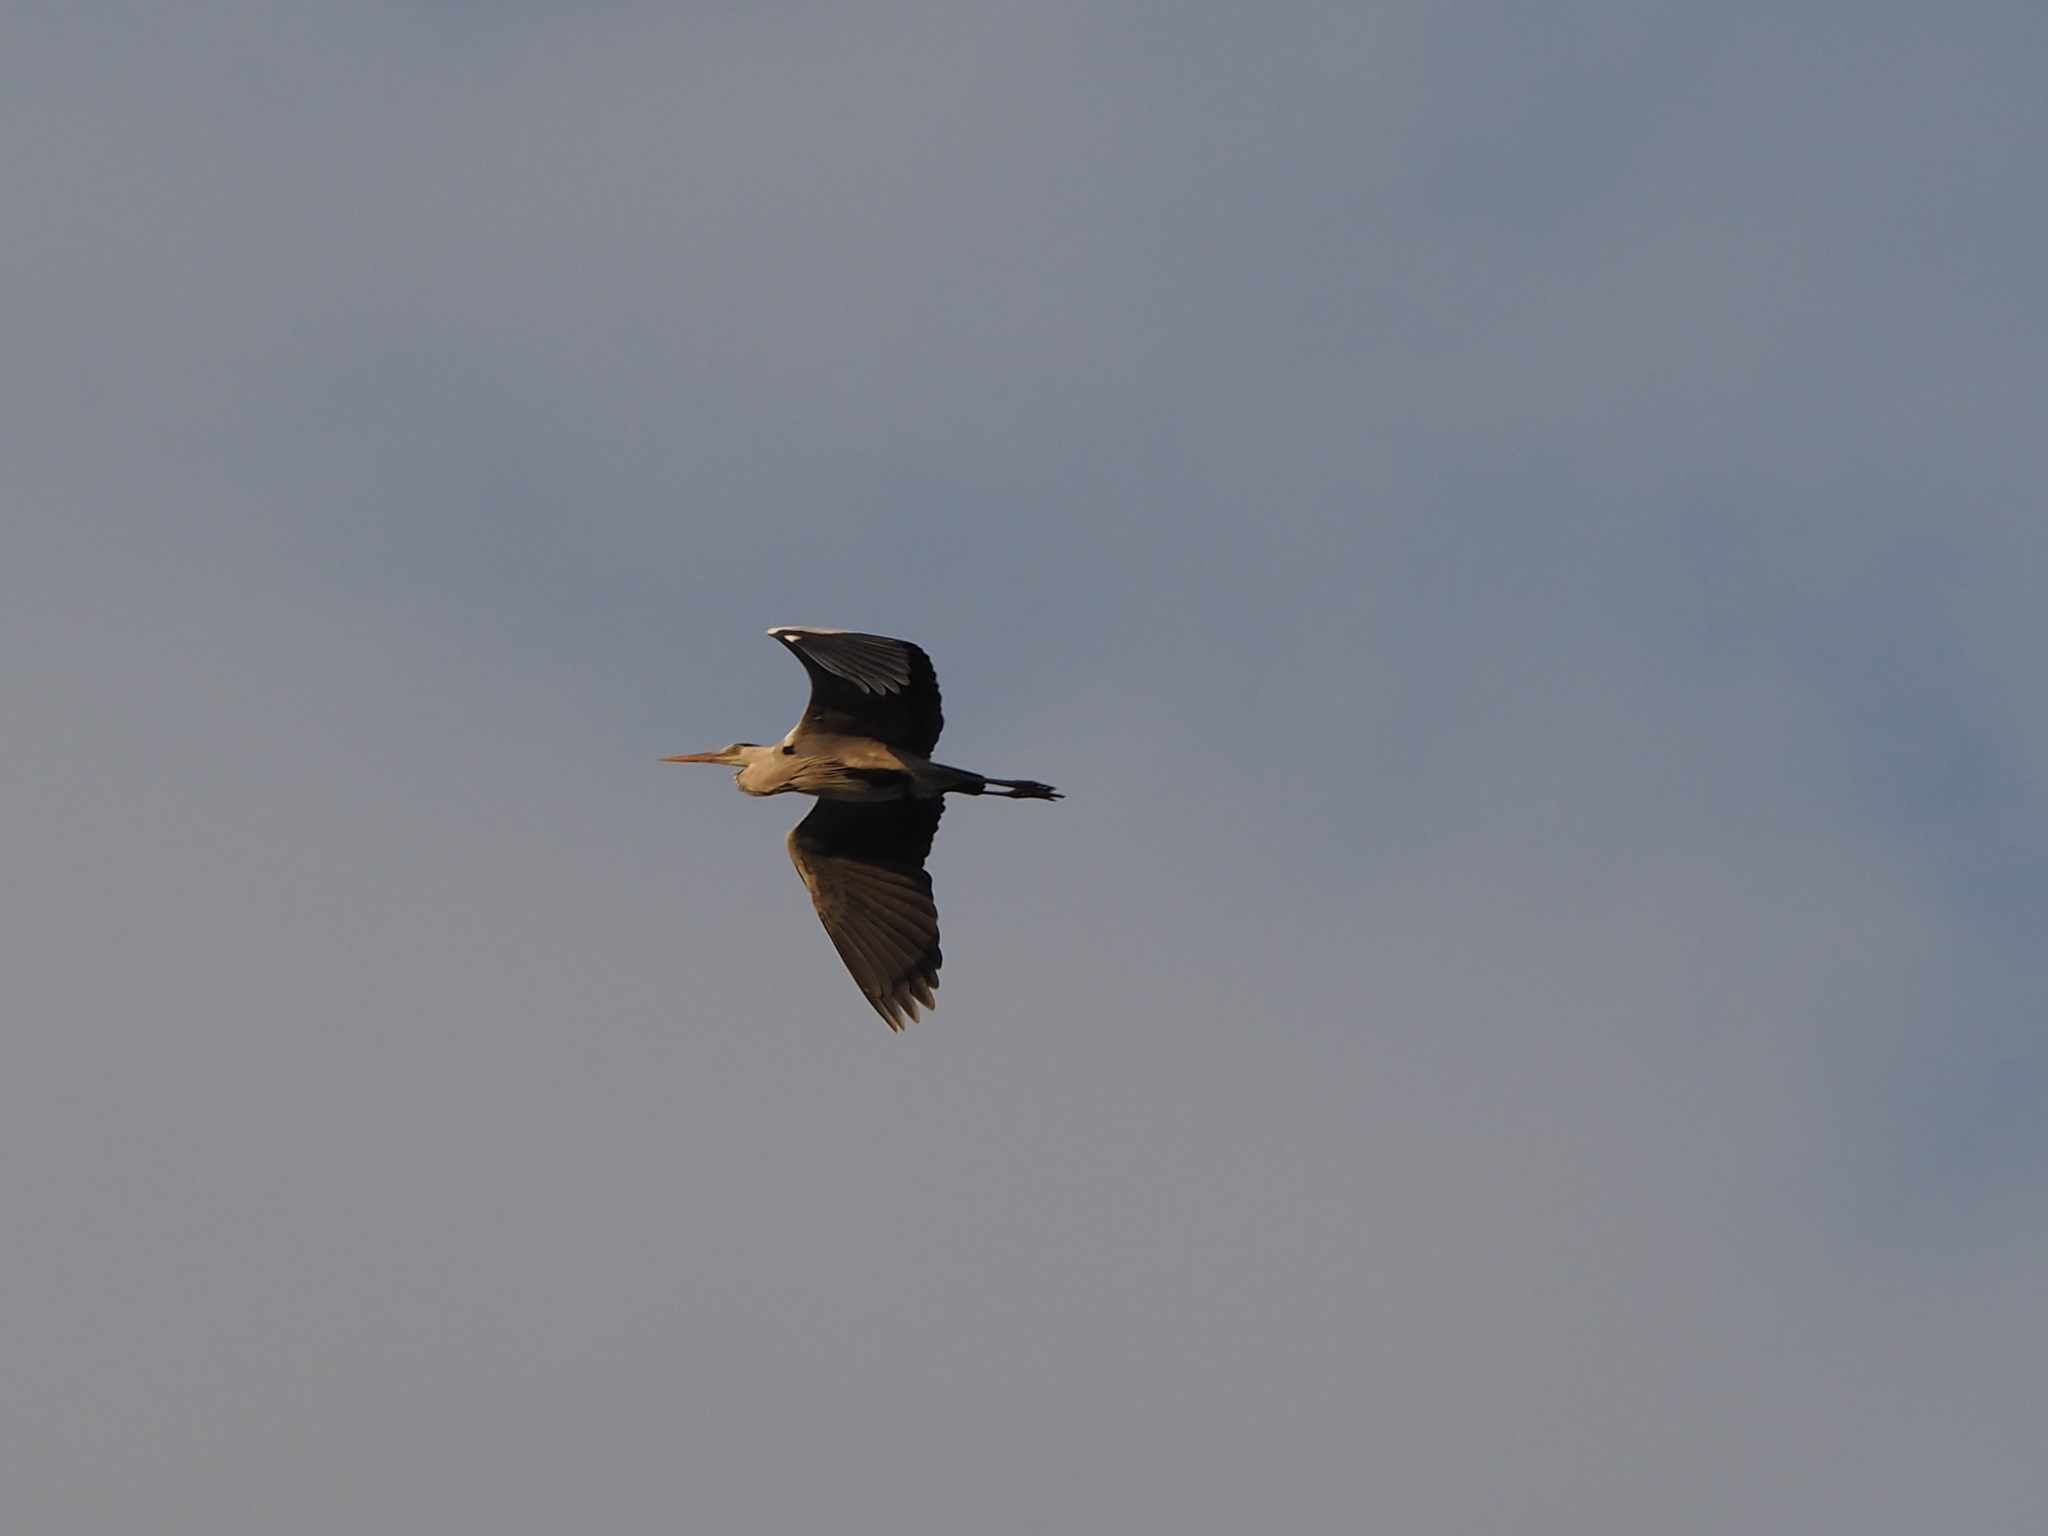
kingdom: Animalia
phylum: Chordata
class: Aves
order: Pelecaniformes
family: Ardeidae
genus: Ardea
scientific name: Ardea cinerea
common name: Grey heron
